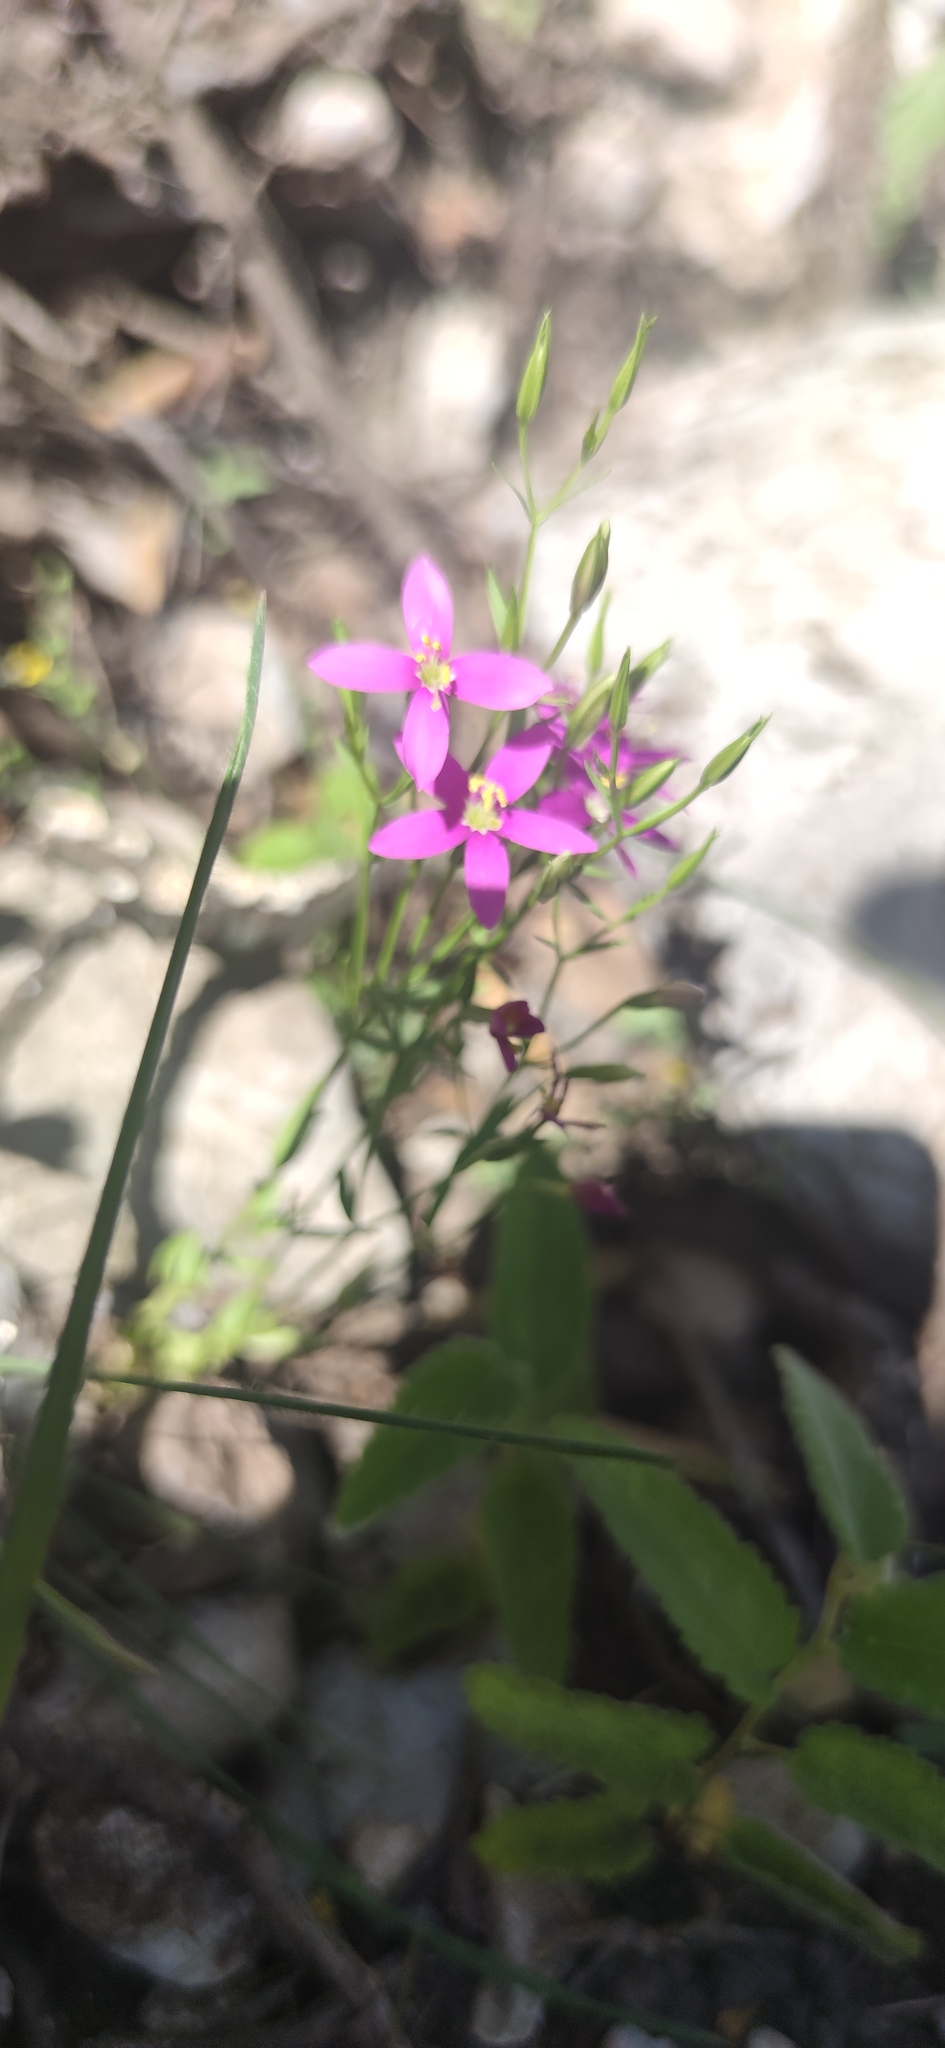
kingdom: Plantae
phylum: Tracheophyta
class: Magnoliopsida
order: Gentianales
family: Gentianaceae
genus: Zeltnera
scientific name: Zeltnera calycosa
